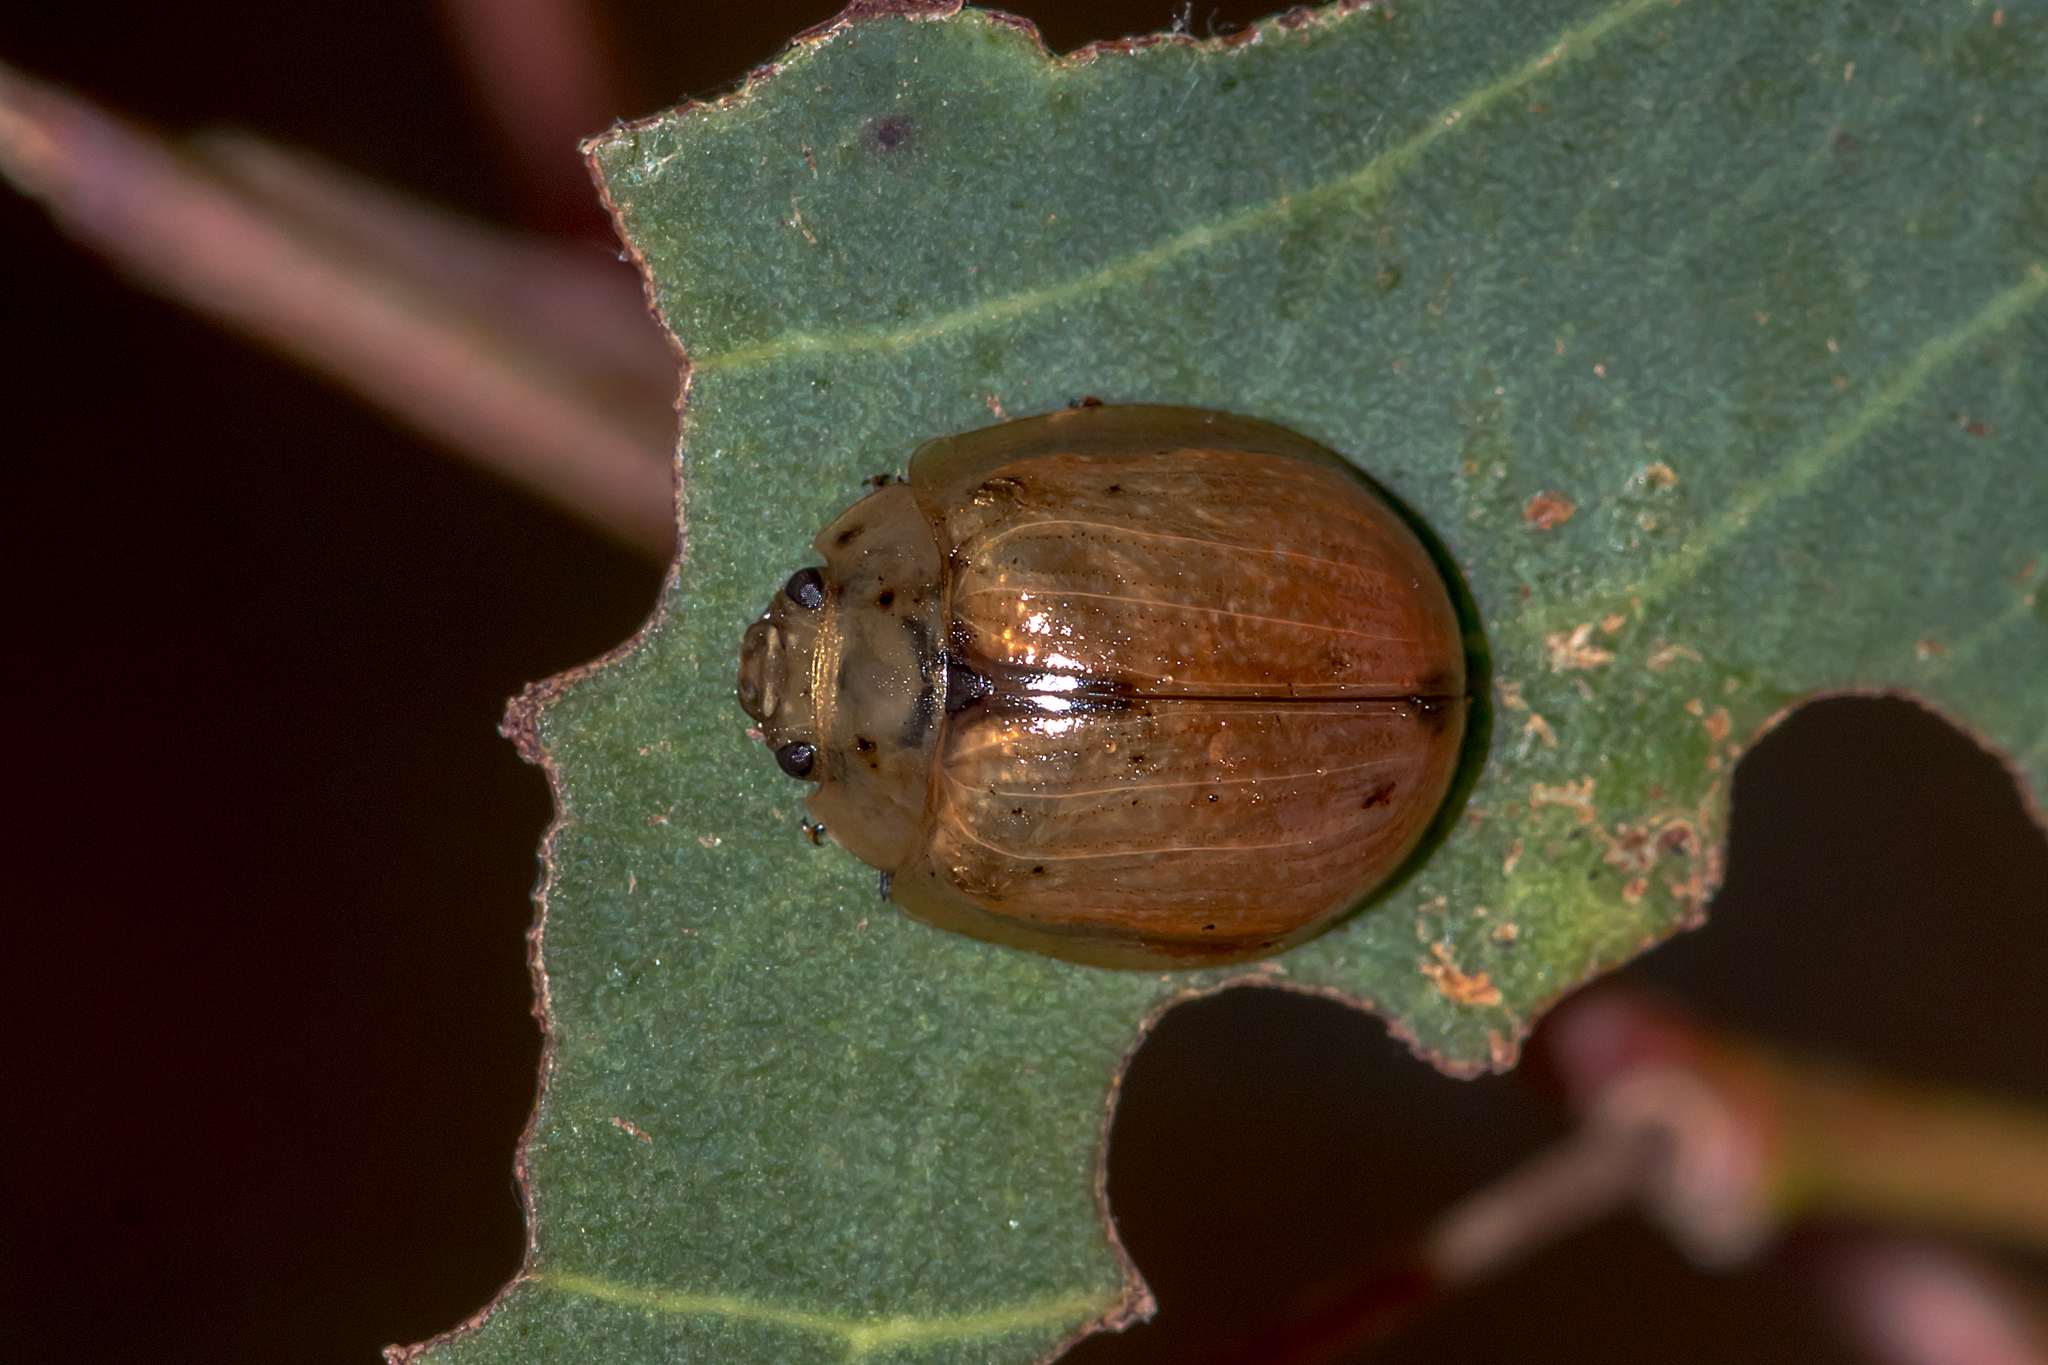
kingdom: Animalia
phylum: Arthropoda
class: Insecta
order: Coleoptera
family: Chrysomelidae
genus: Paropsisterna
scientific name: Paropsisterna cloelia
